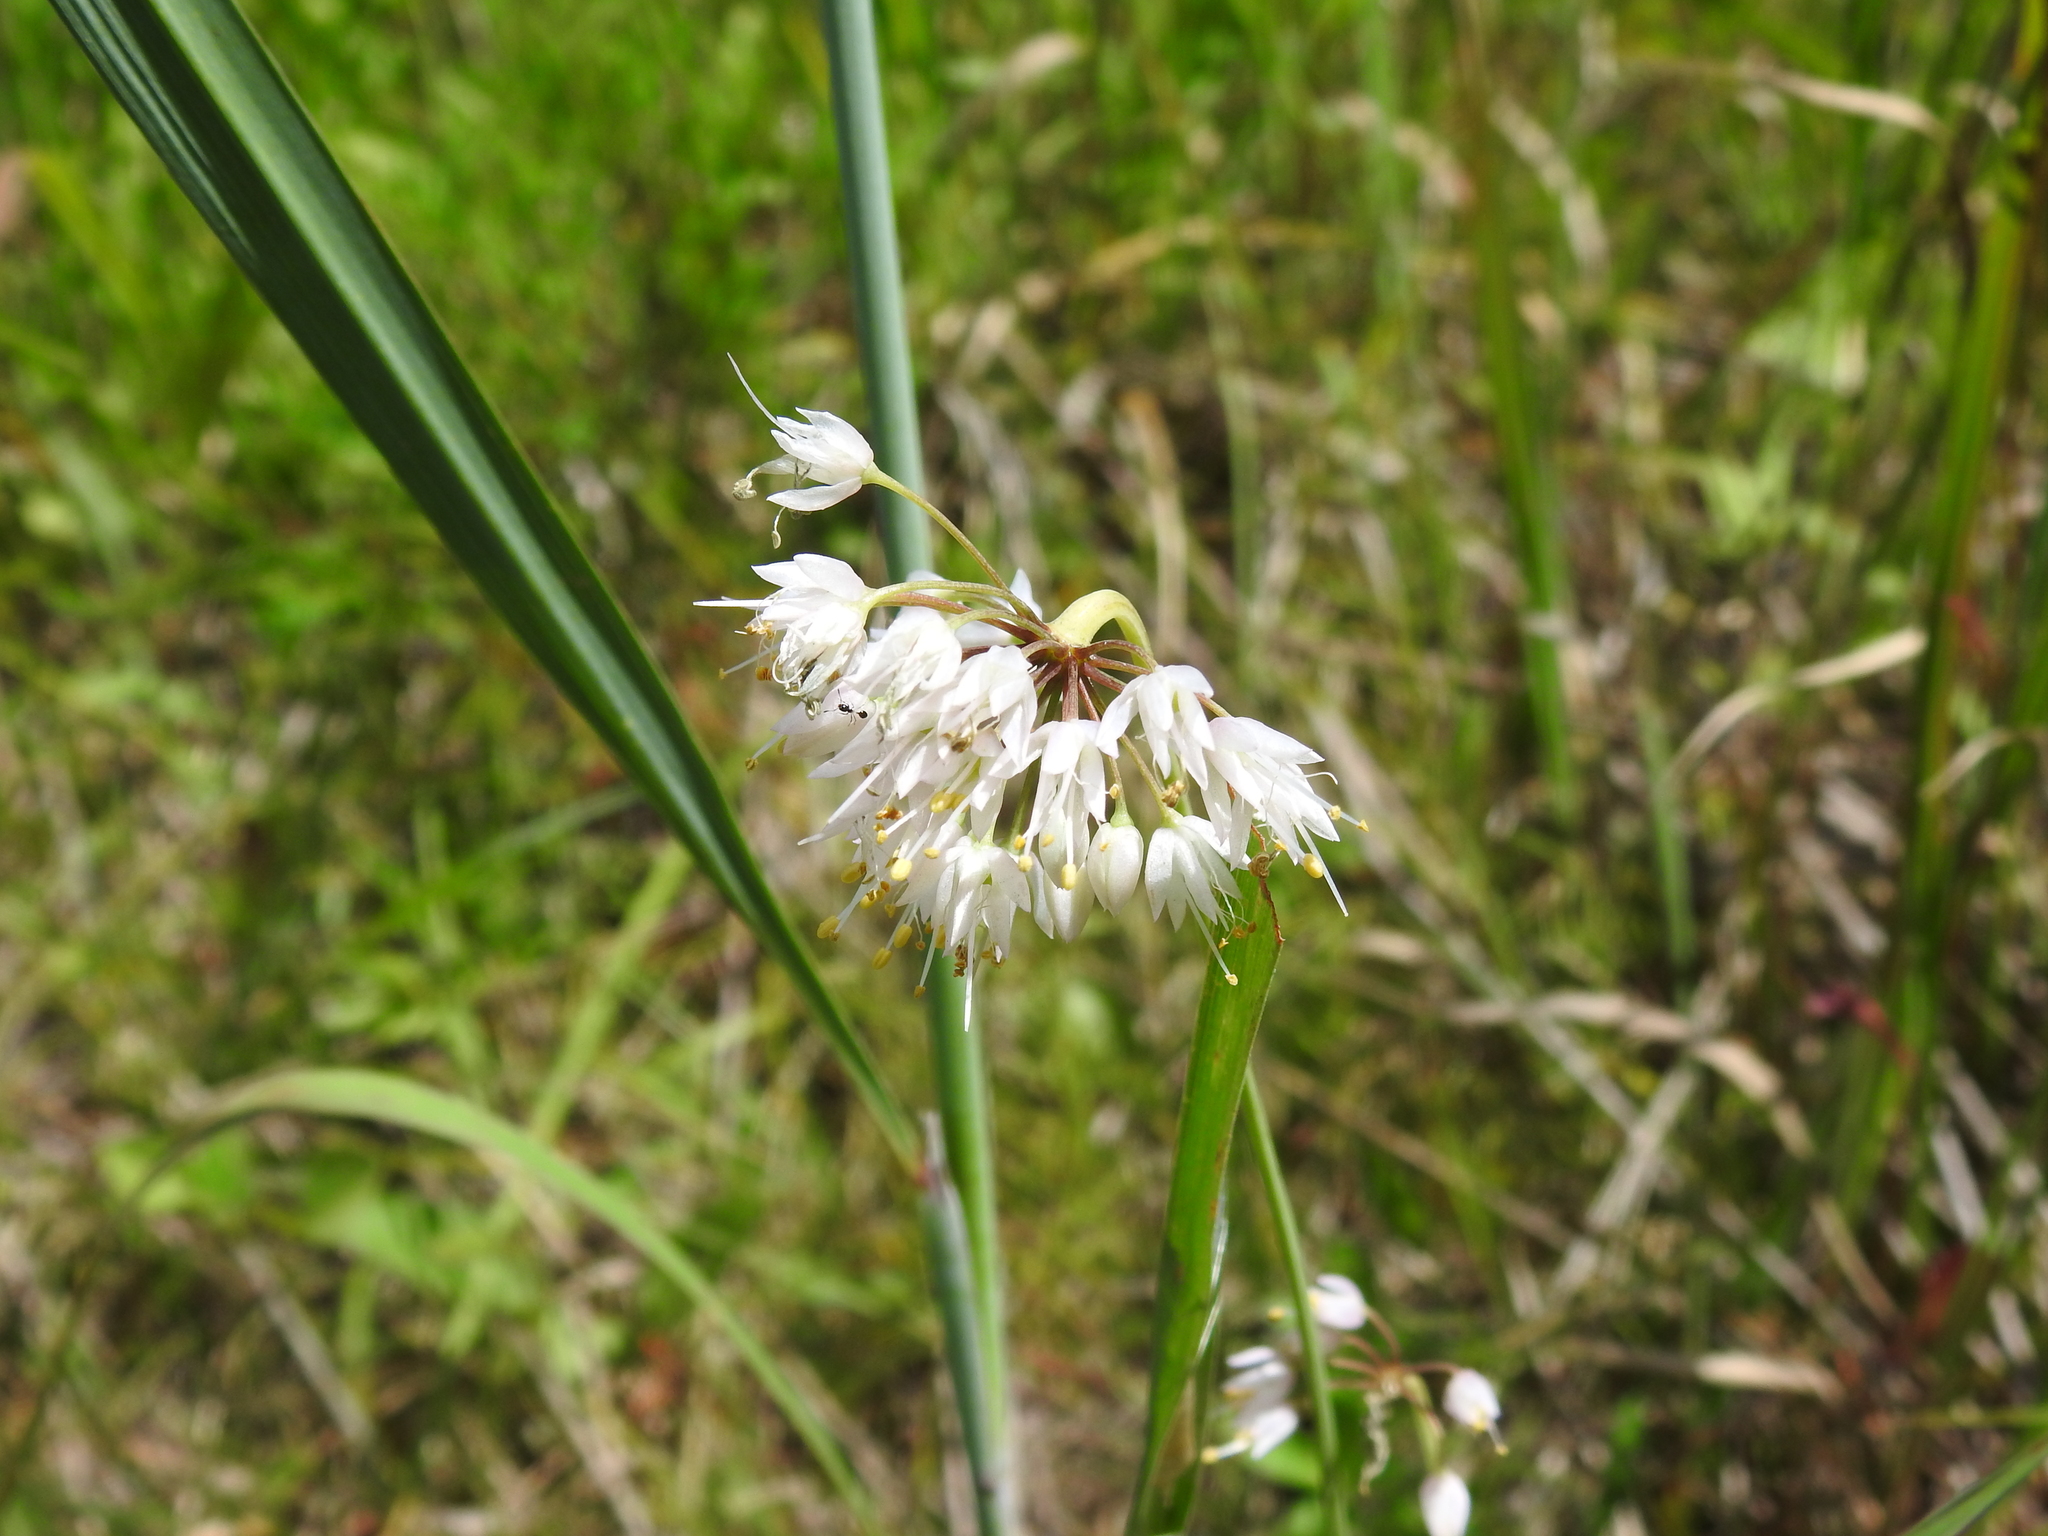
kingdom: Plantae
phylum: Tracheophyta
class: Liliopsida
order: Asparagales
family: Amaryllidaceae
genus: Allium
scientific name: Allium cernuum
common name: Nodding onion
